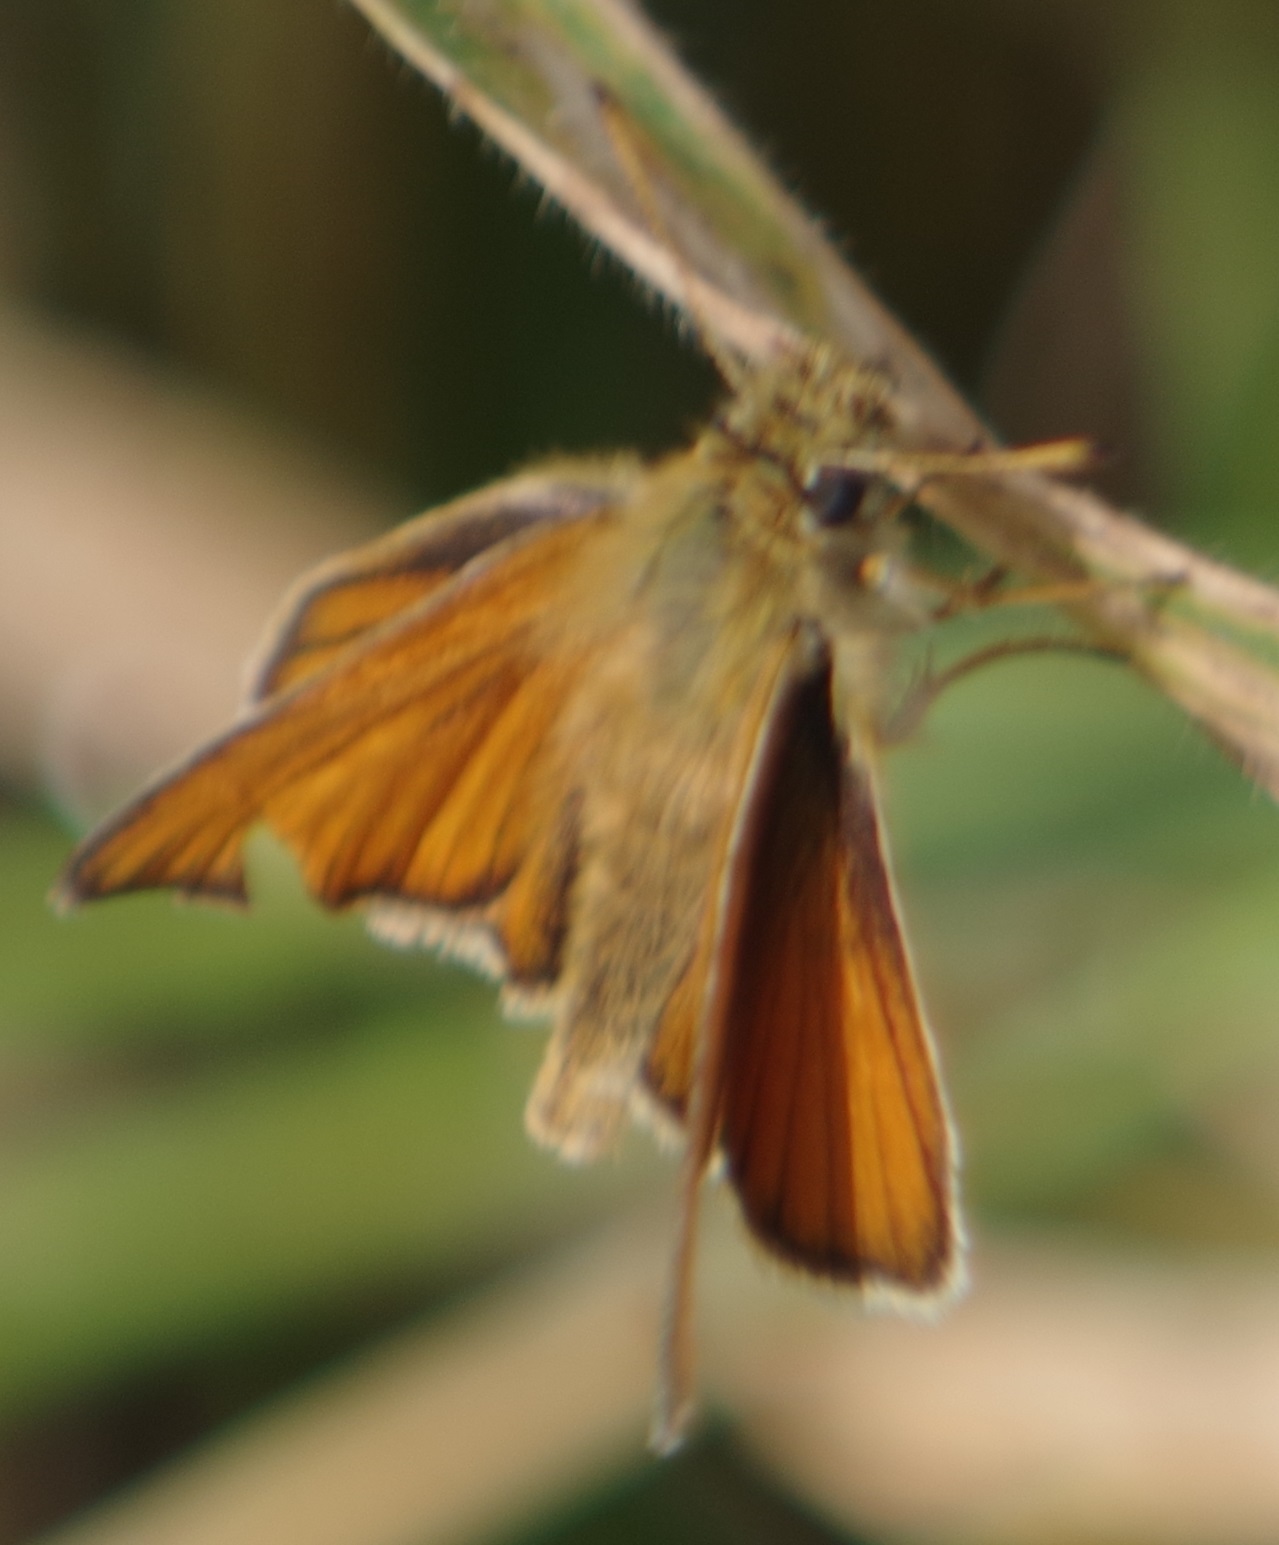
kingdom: Animalia
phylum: Arthropoda
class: Insecta
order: Lepidoptera
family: Hesperiidae
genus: Thymelicus
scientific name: Thymelicus lineola
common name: Essex skipper
